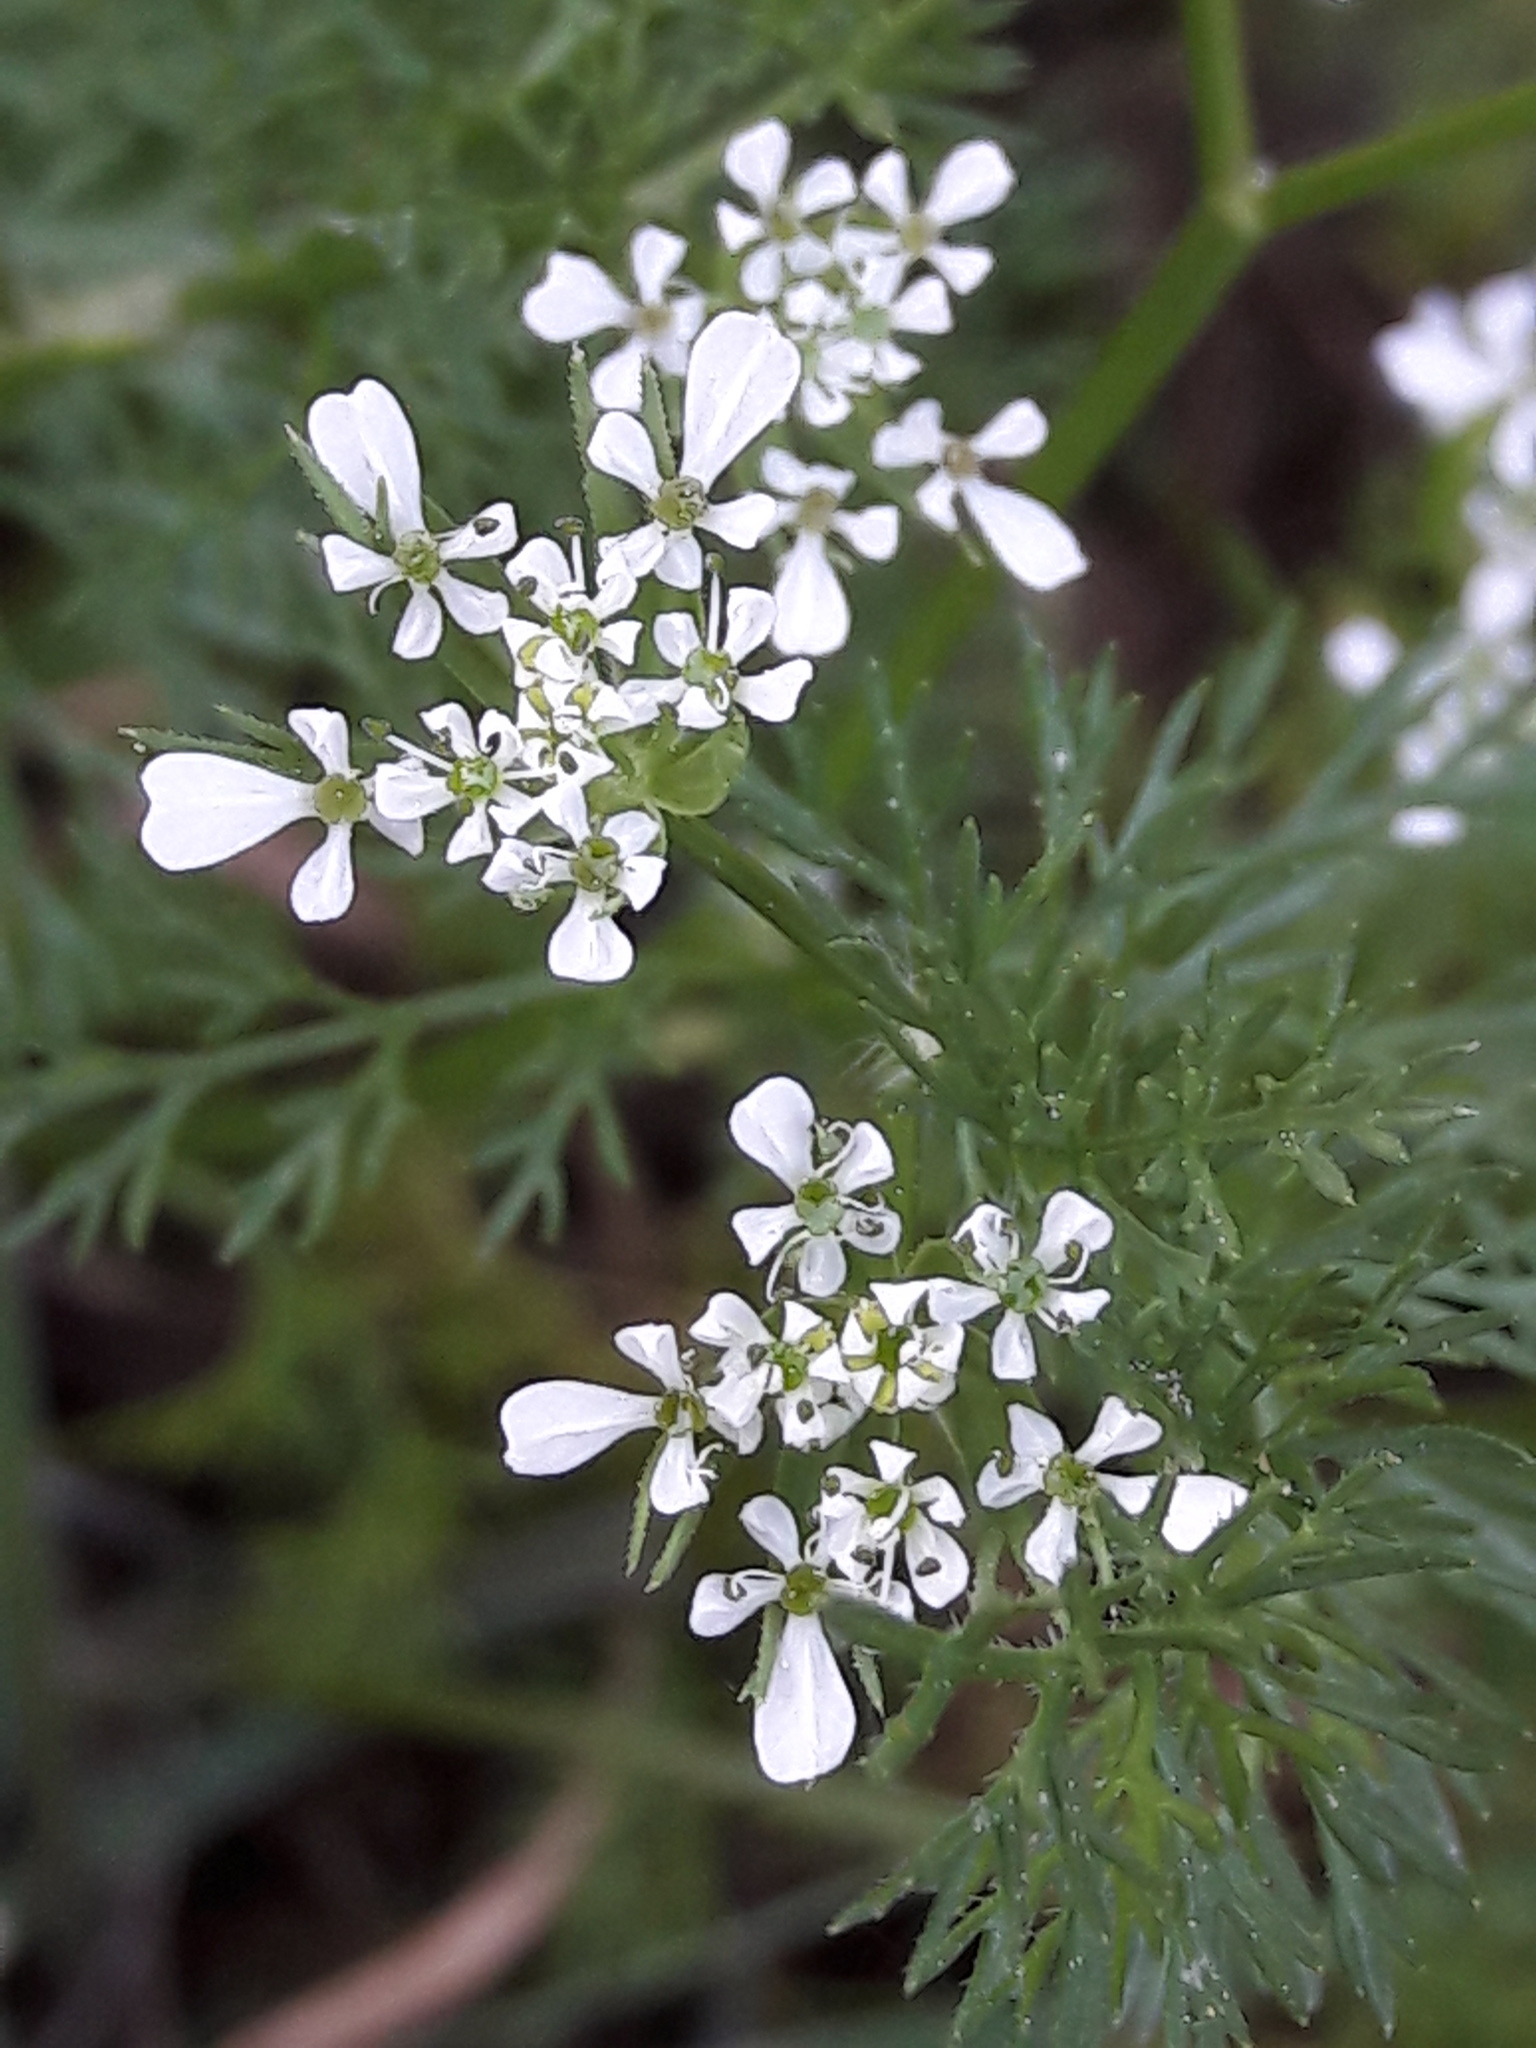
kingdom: Plantae
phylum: Tracheophyta
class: Magnoliopsida
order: Apiales
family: Apiaceae
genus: Scandix
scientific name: Scandix pecten-veneris
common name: Shepherd's-needle
